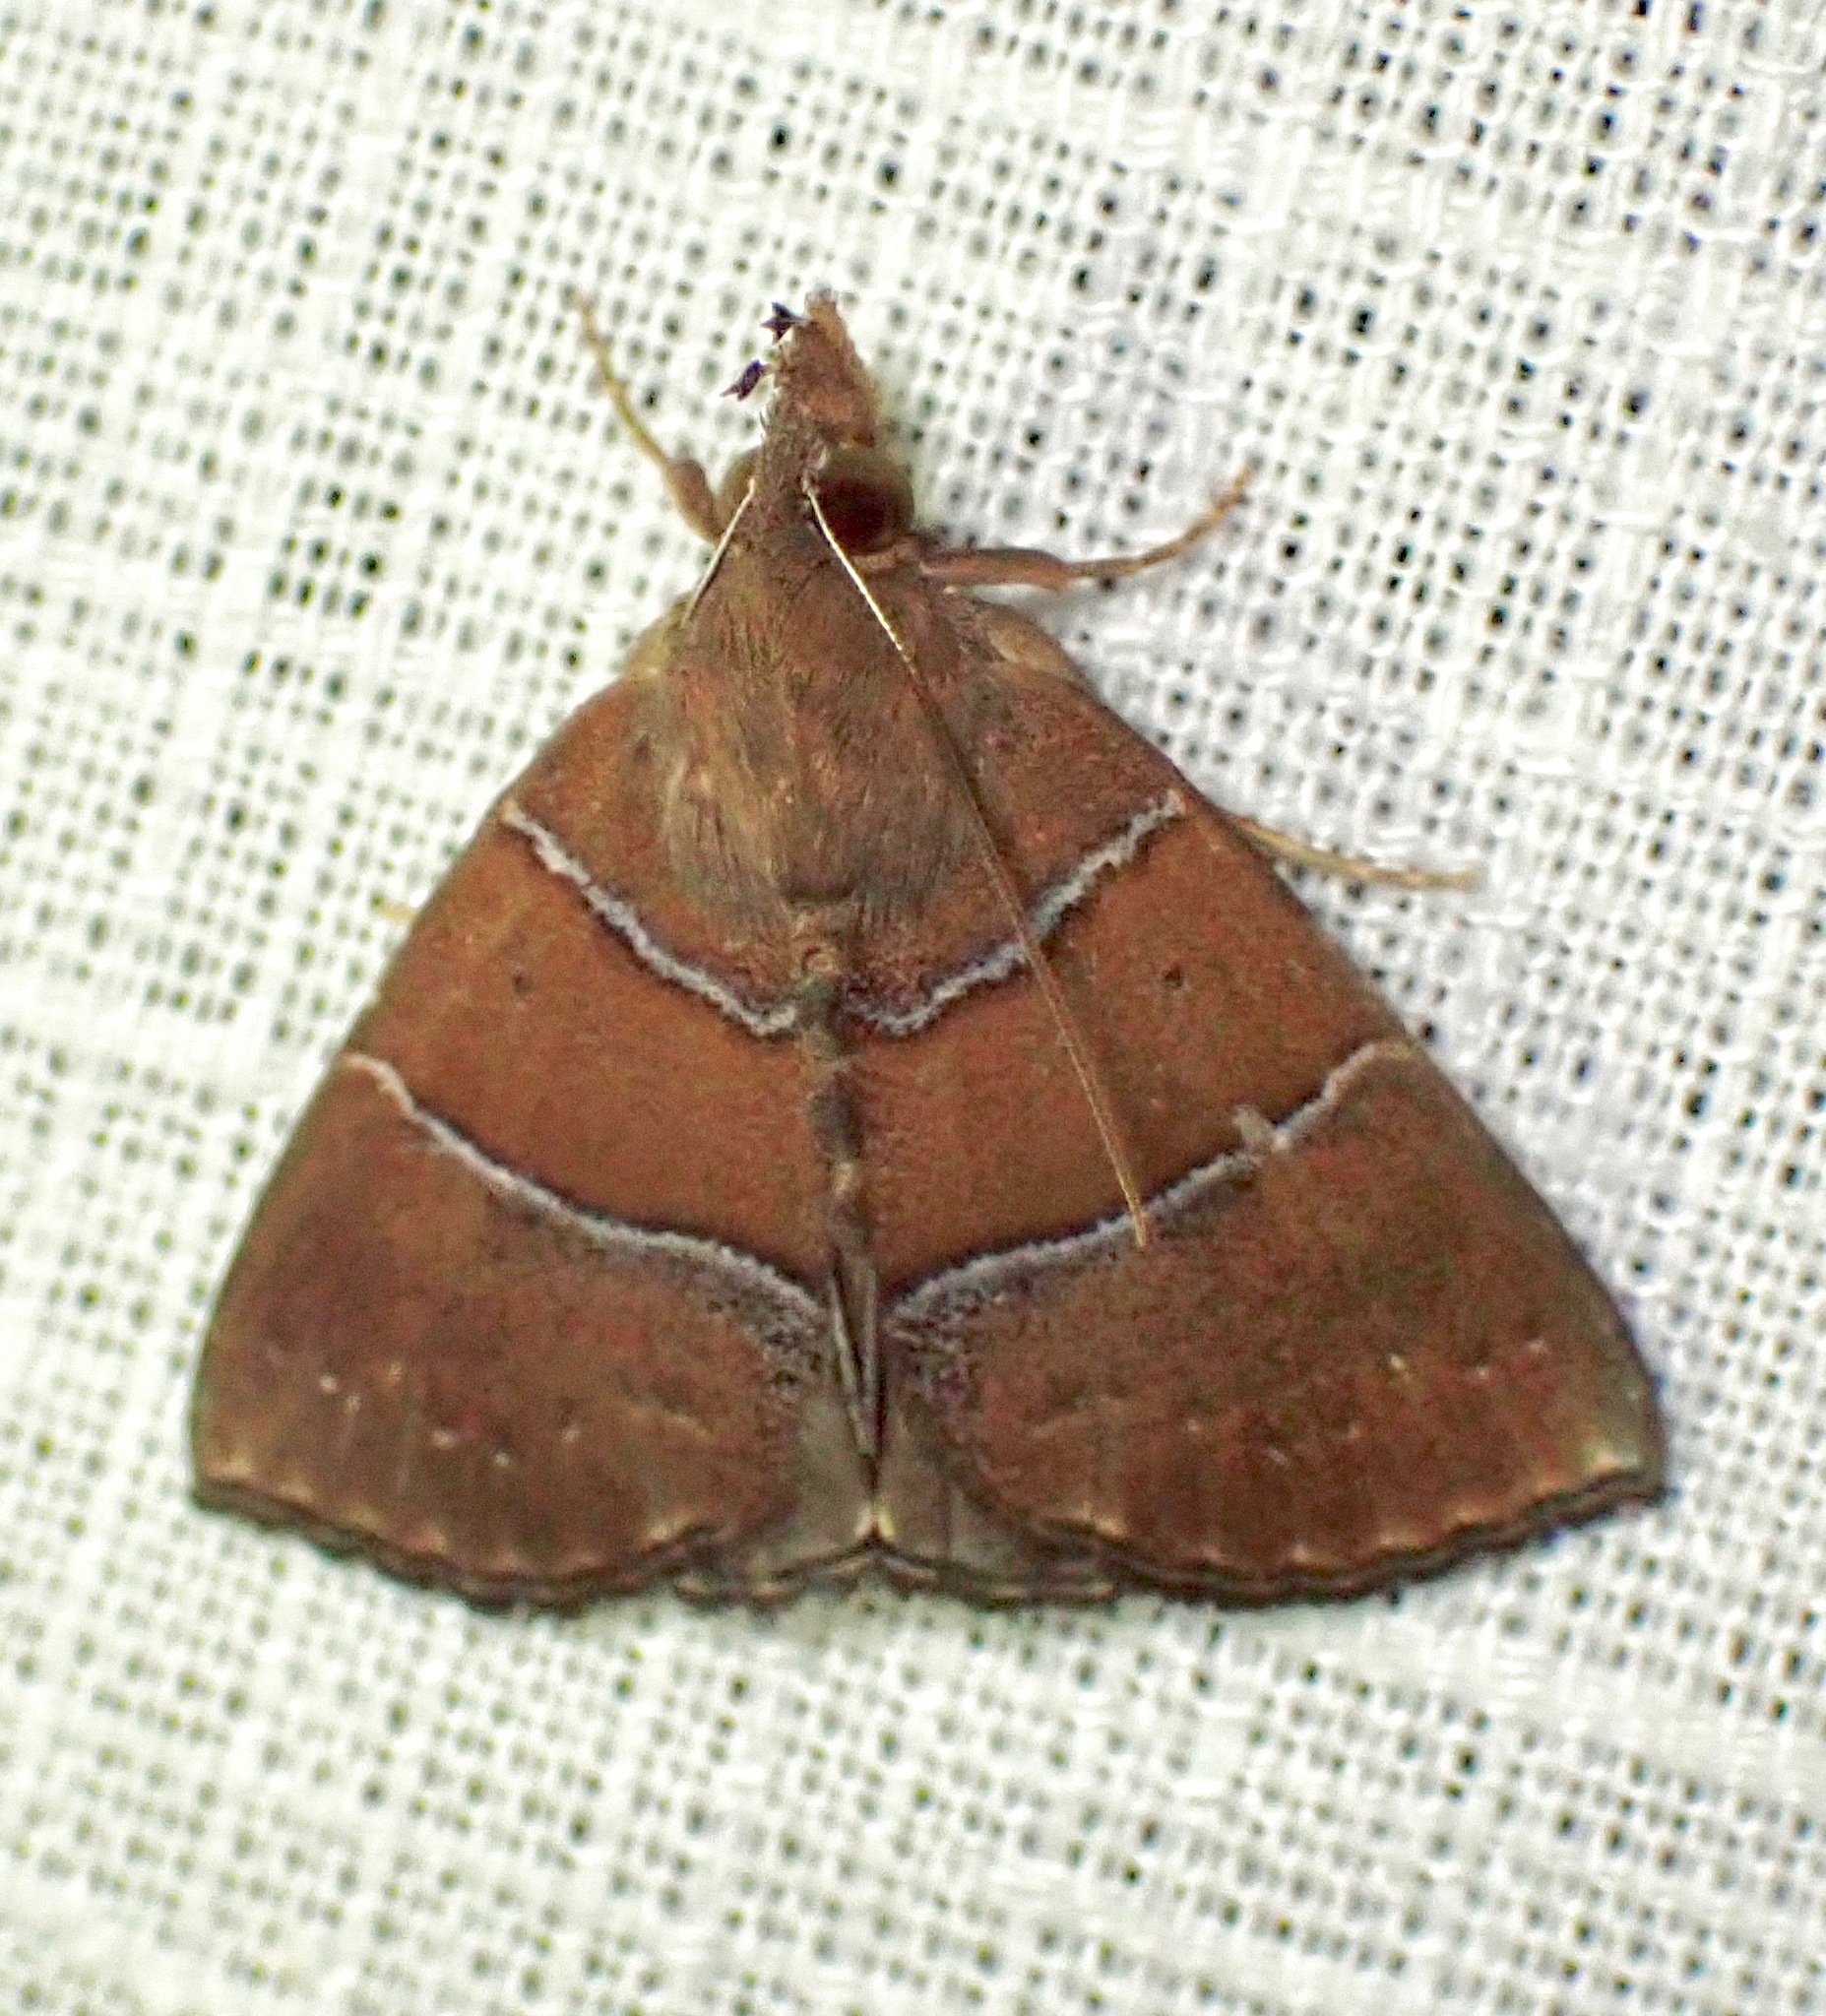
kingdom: Animalia
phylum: Arthropoda
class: Insecta
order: Lepidoptera
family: Erebidae
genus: Hypena
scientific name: Hypena munda
